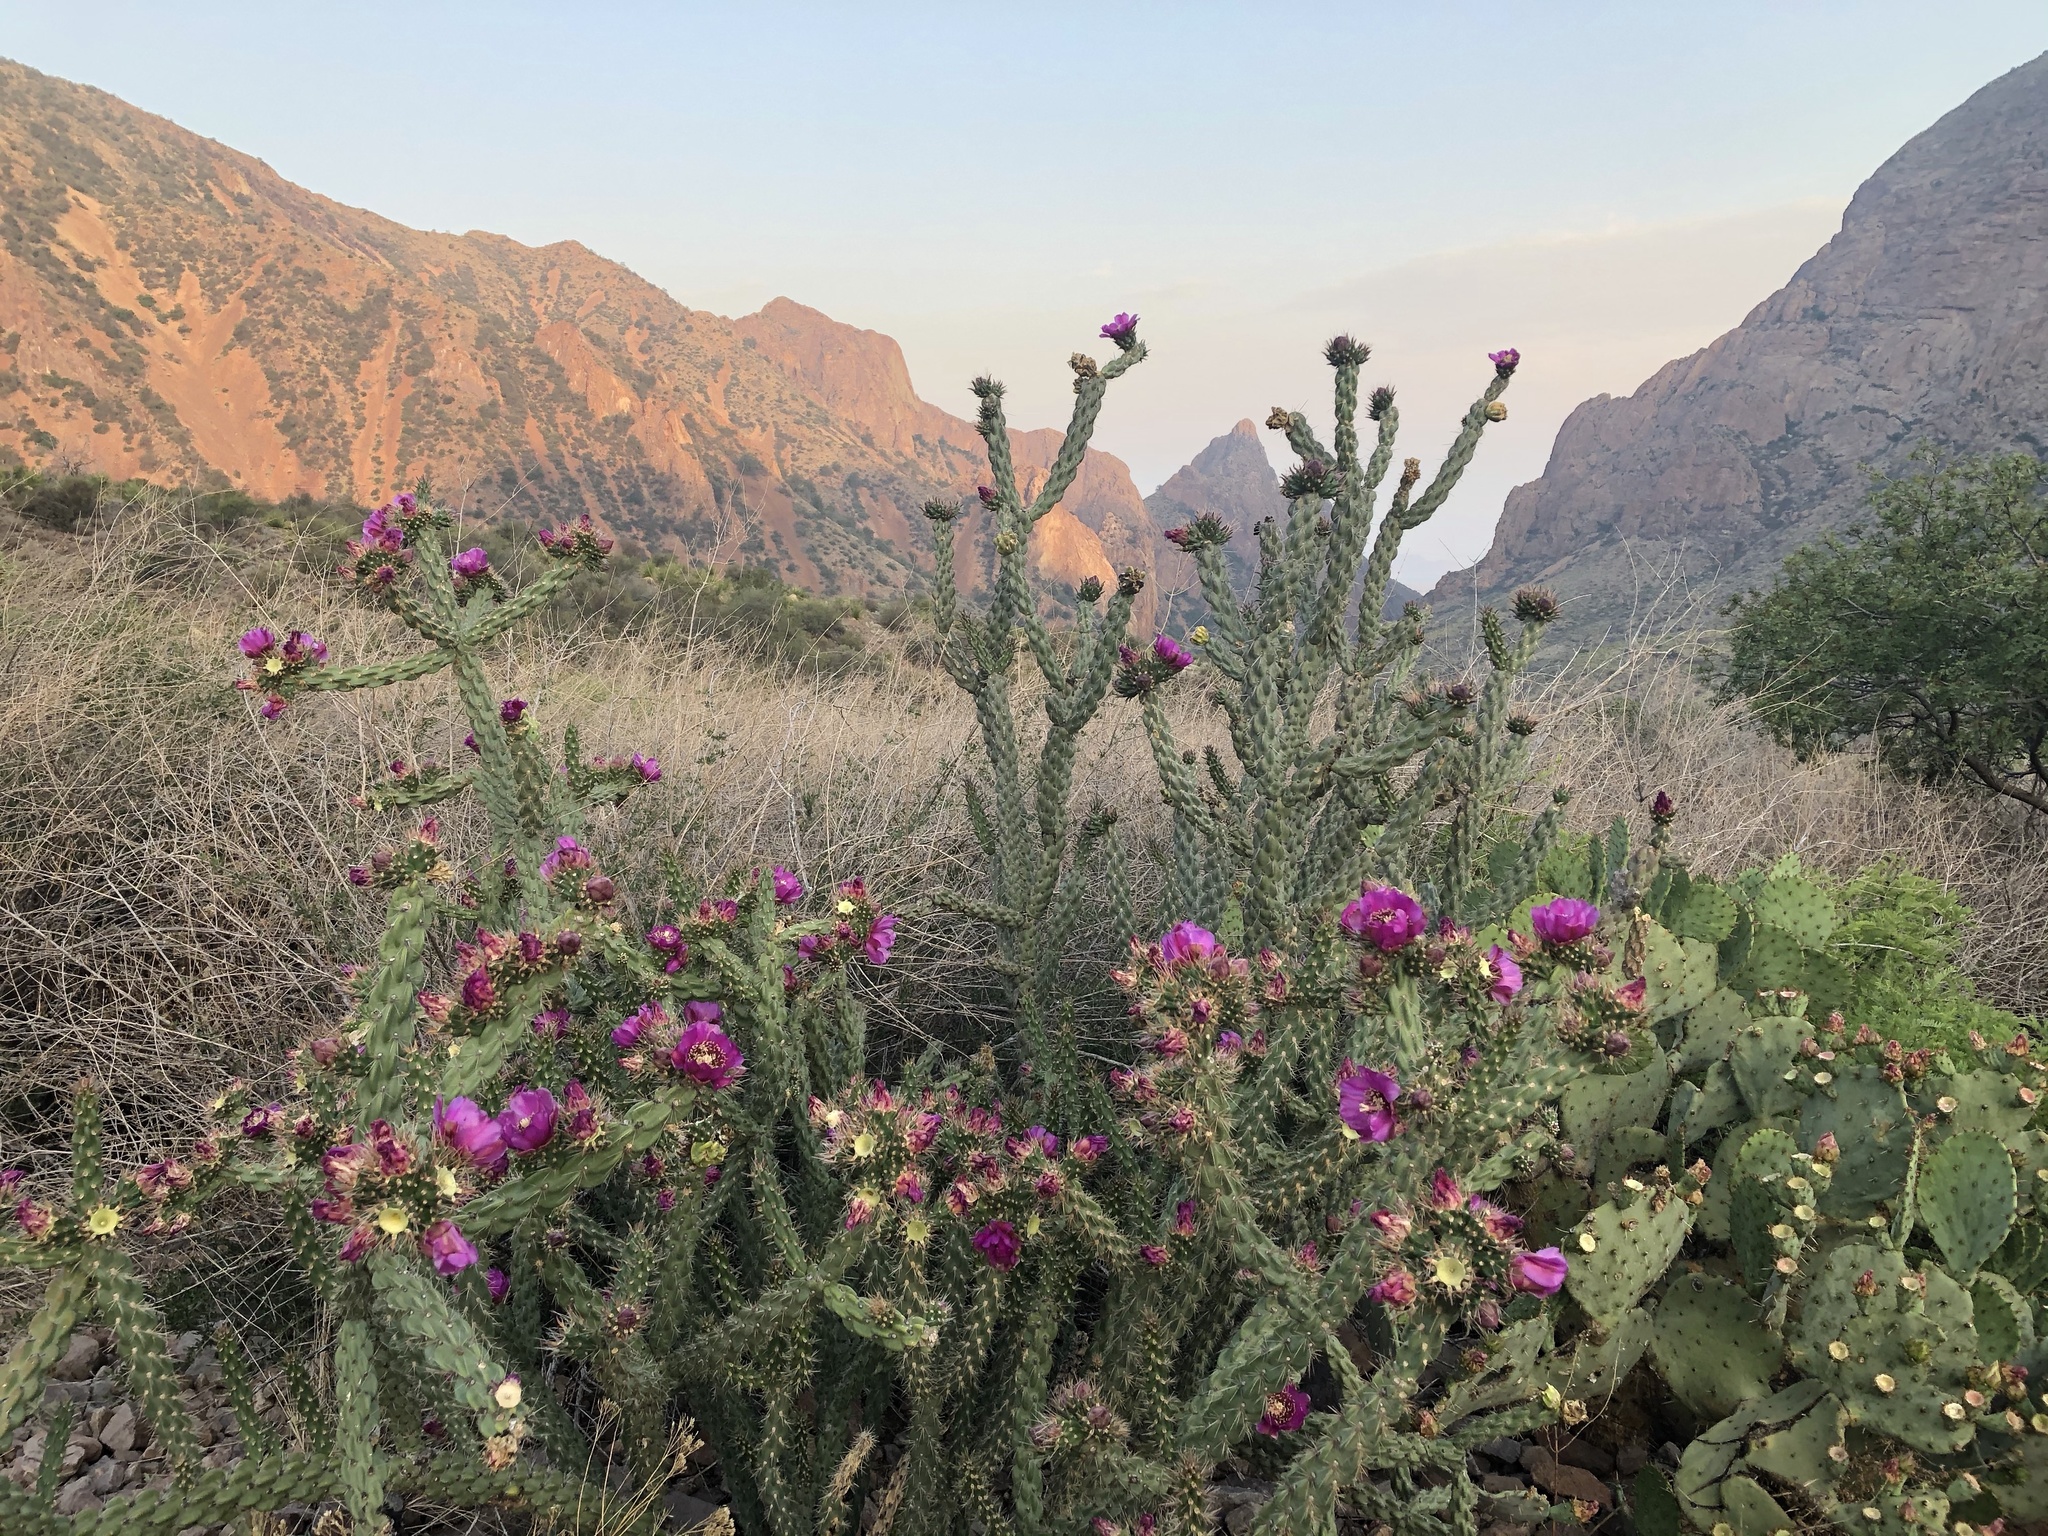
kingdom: Plantae
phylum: Tracheophyta
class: Magnoliopsida
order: Caryophyllales
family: Cactaceae
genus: Cylindropuntia
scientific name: Cylindropuntia imbricata
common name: Candelabrum cactus
